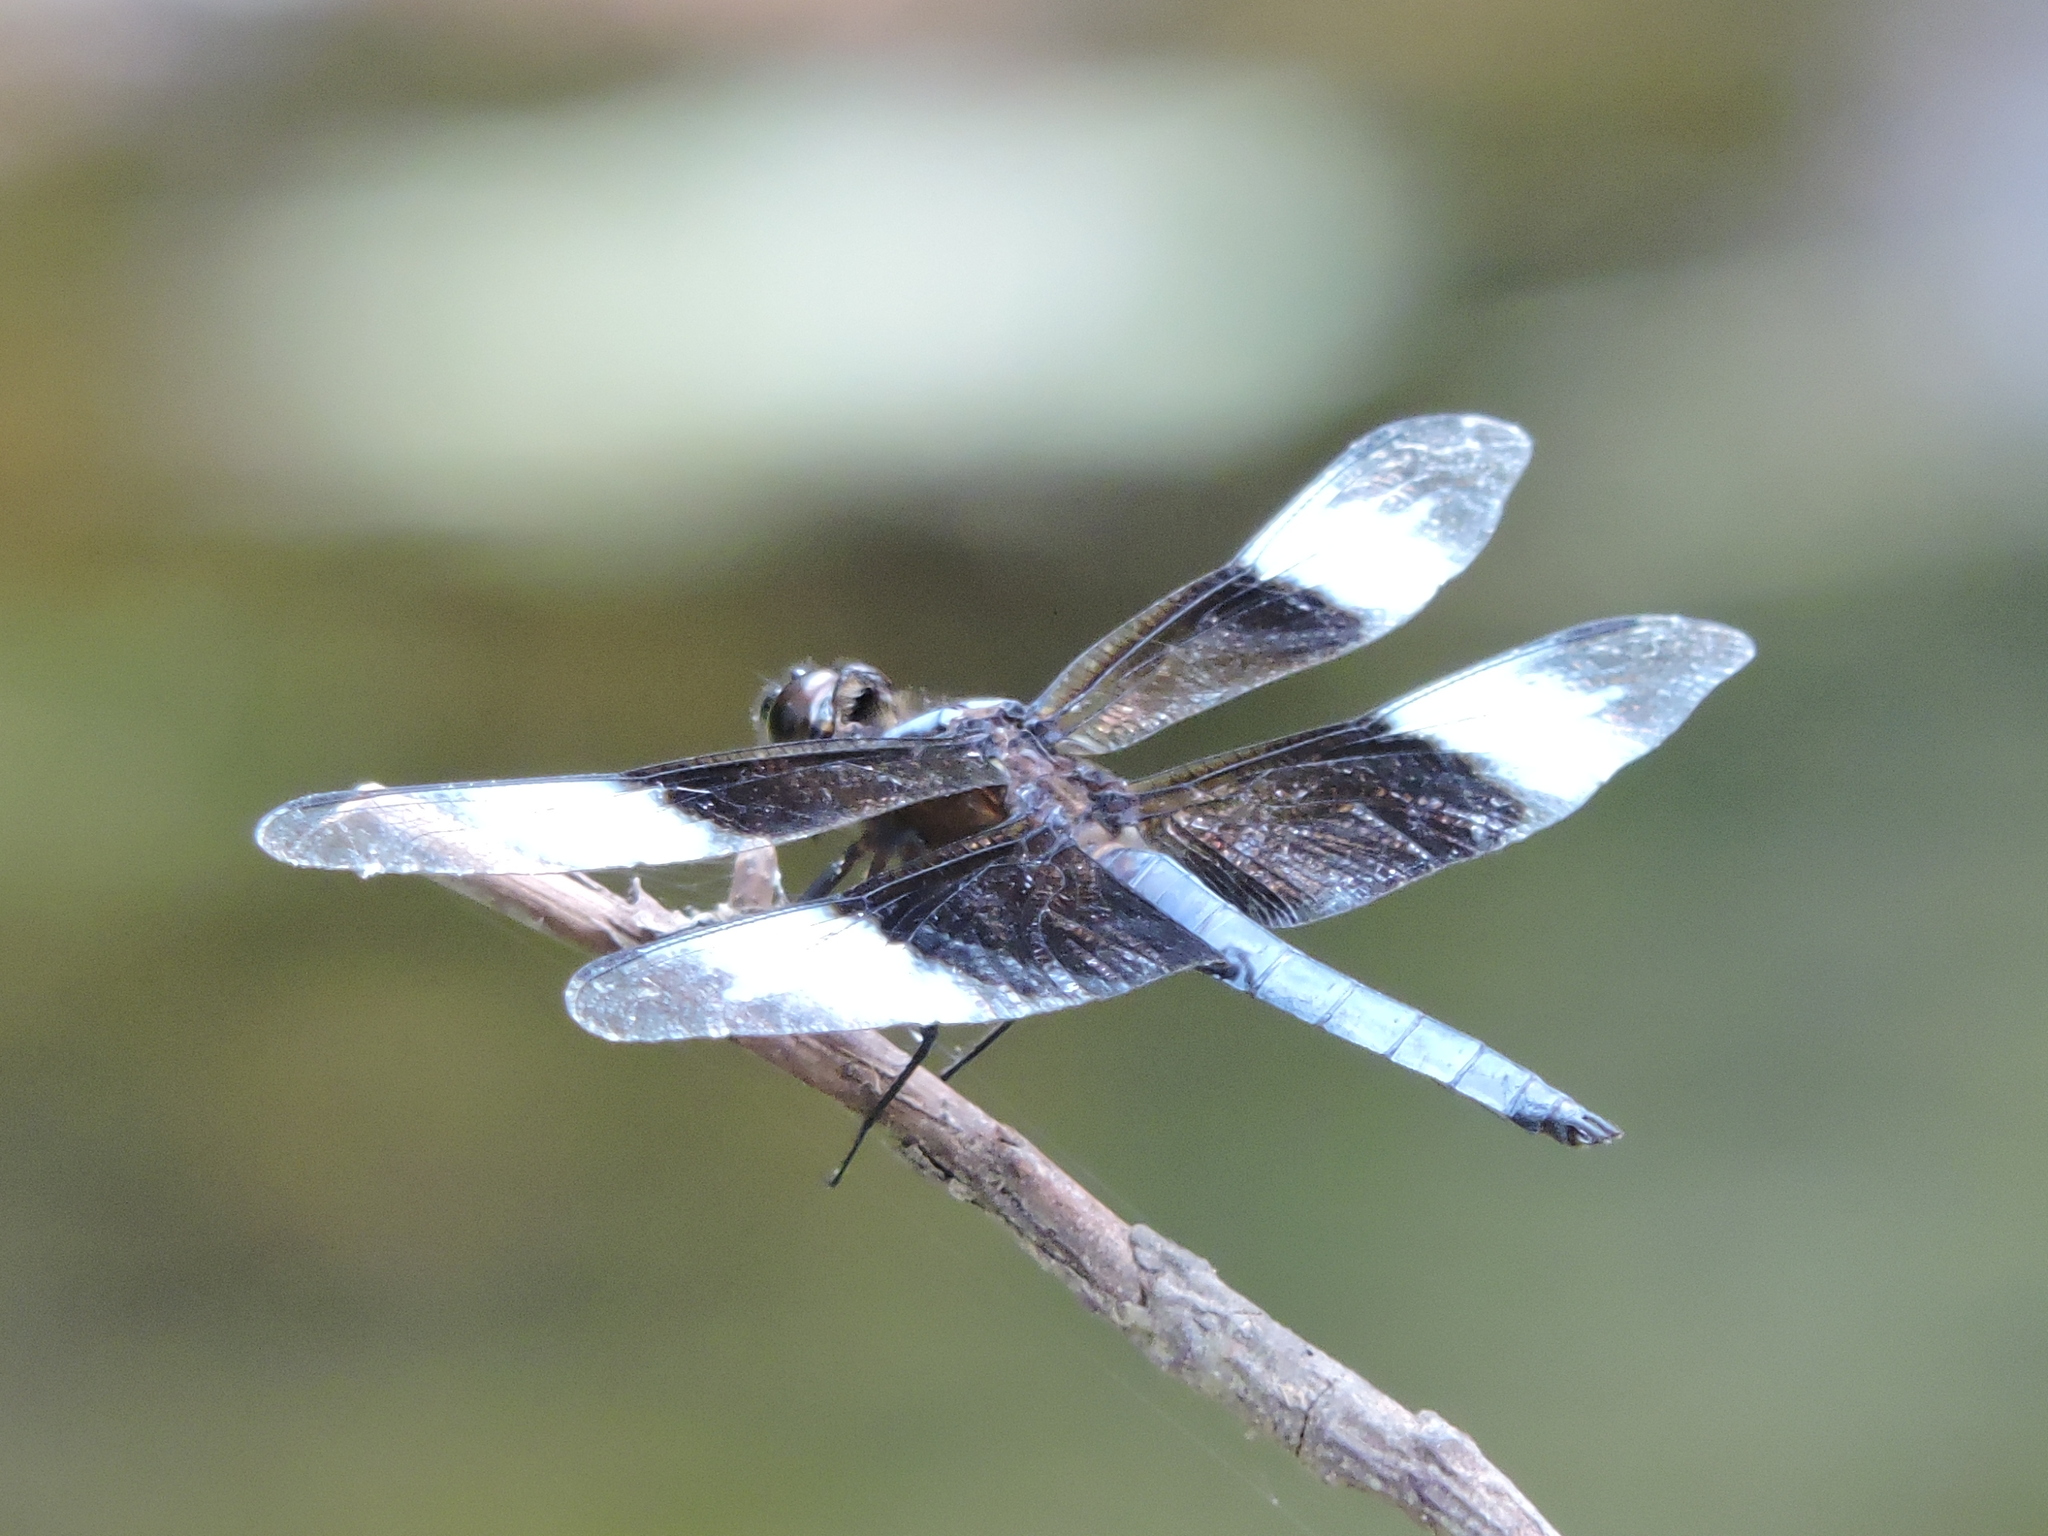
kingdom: Animalia
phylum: Arthropoda
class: Insecta
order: Odonata
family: Libellulidae
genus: Libellula
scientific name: Libellula luctuosa
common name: Widow skimmer
